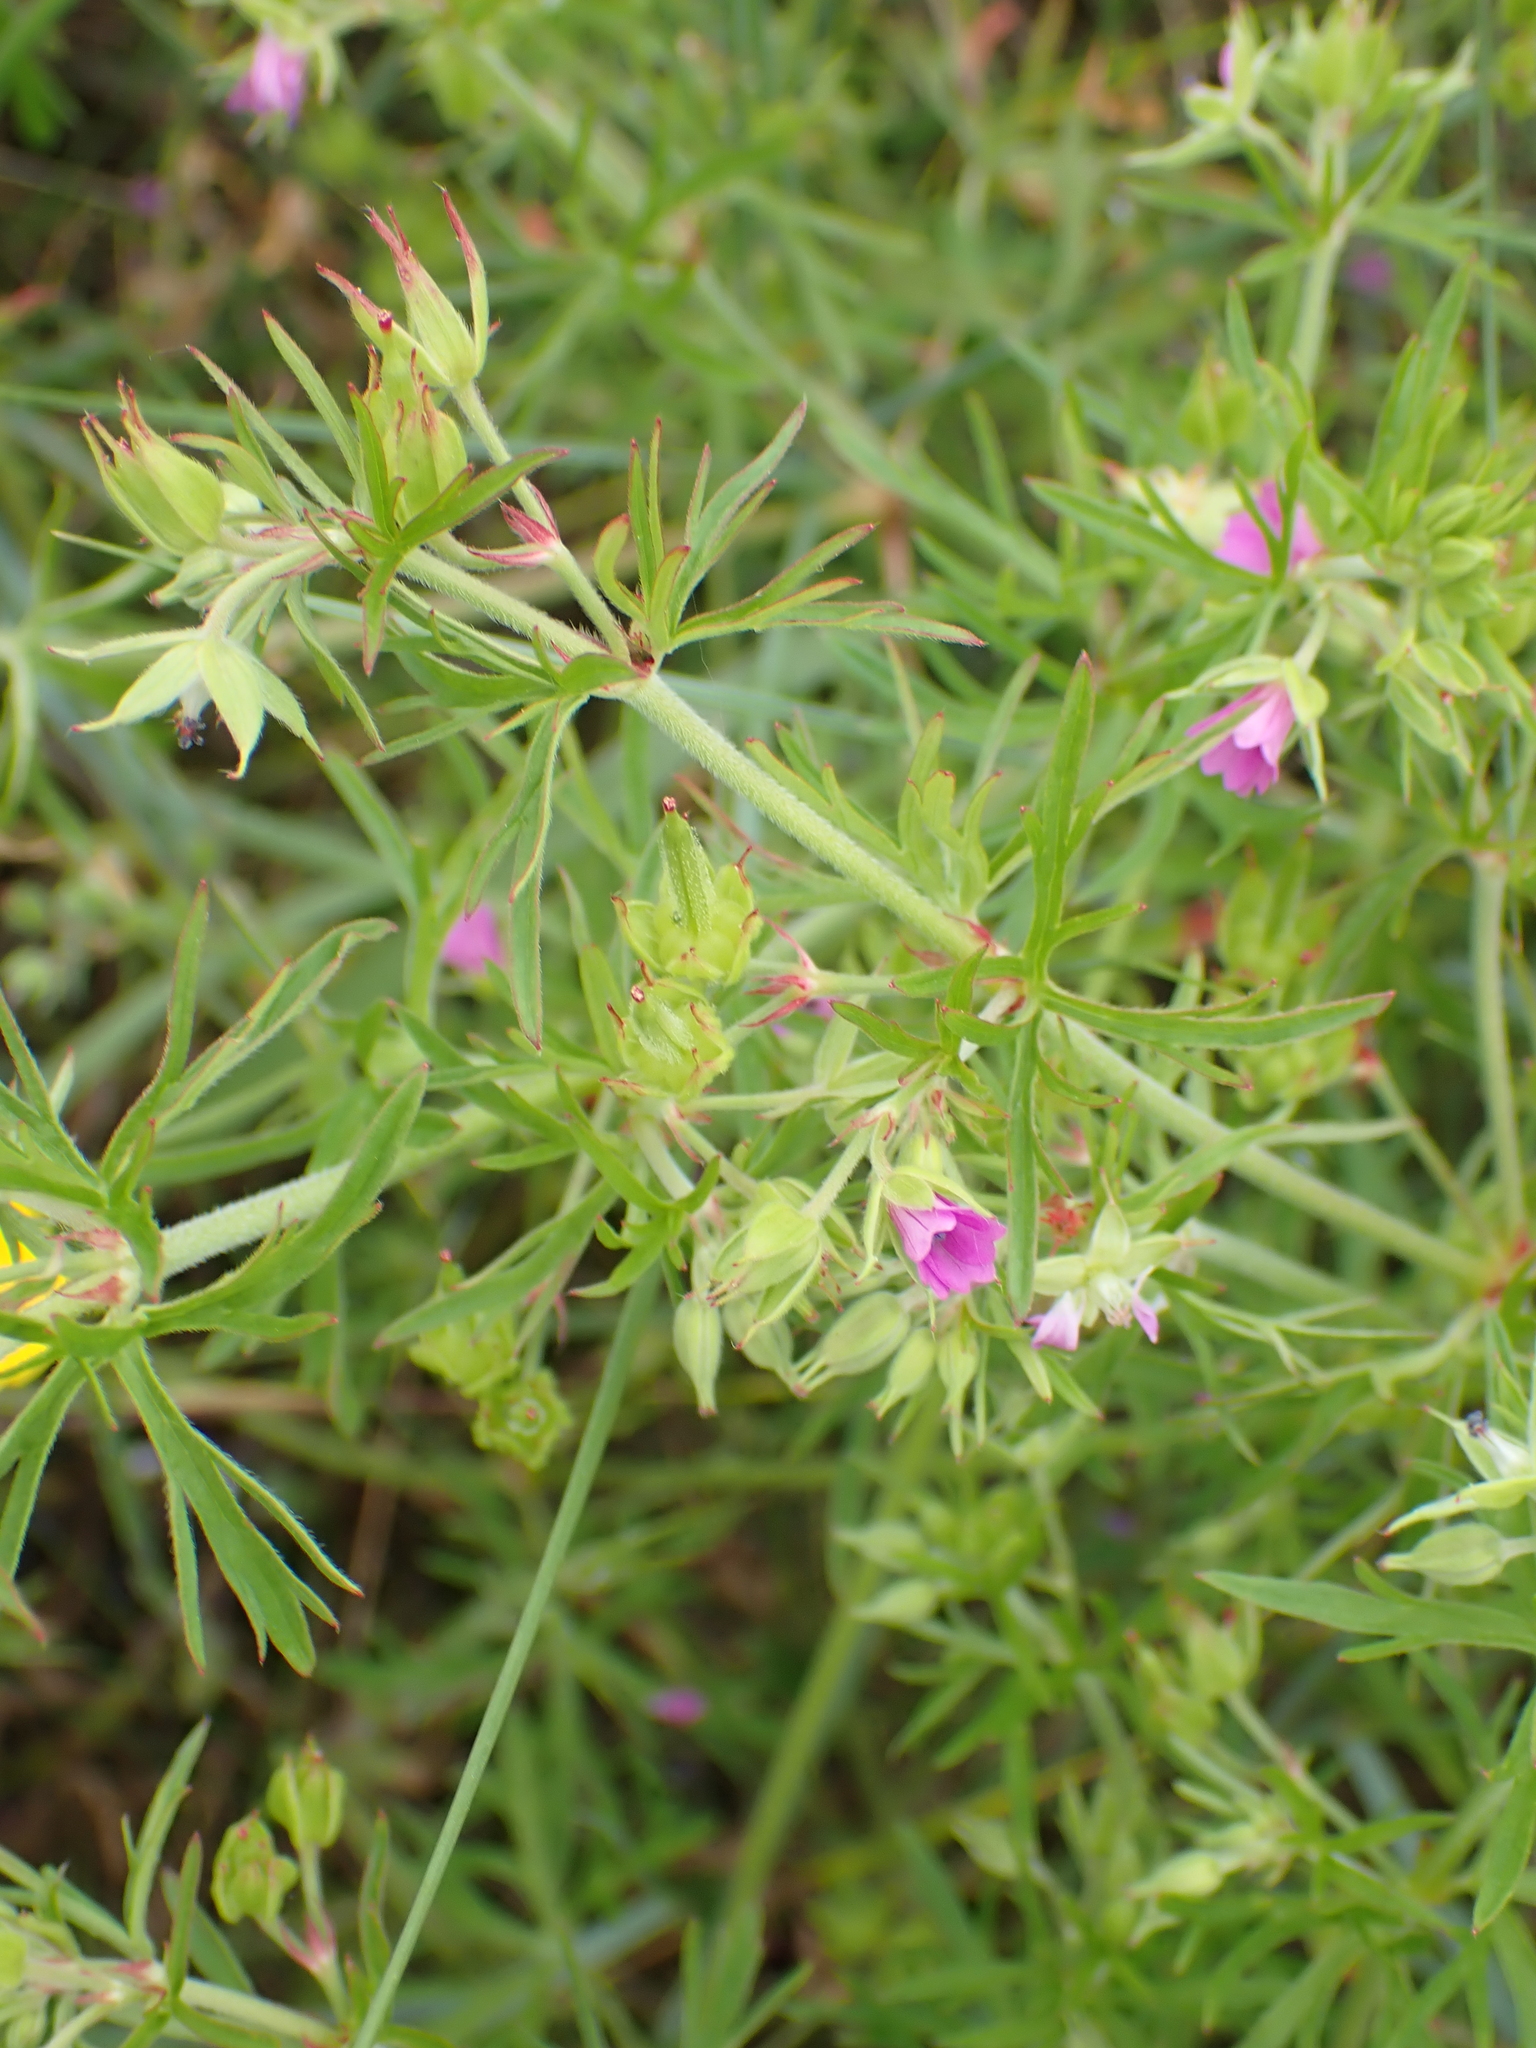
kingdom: Plantae
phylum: Tracheophyta
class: Magnoliopsida
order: Geraniales
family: Geraniaceae
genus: Geranium
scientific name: Geranium dissectum
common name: Cut-leaved crane's-bill
